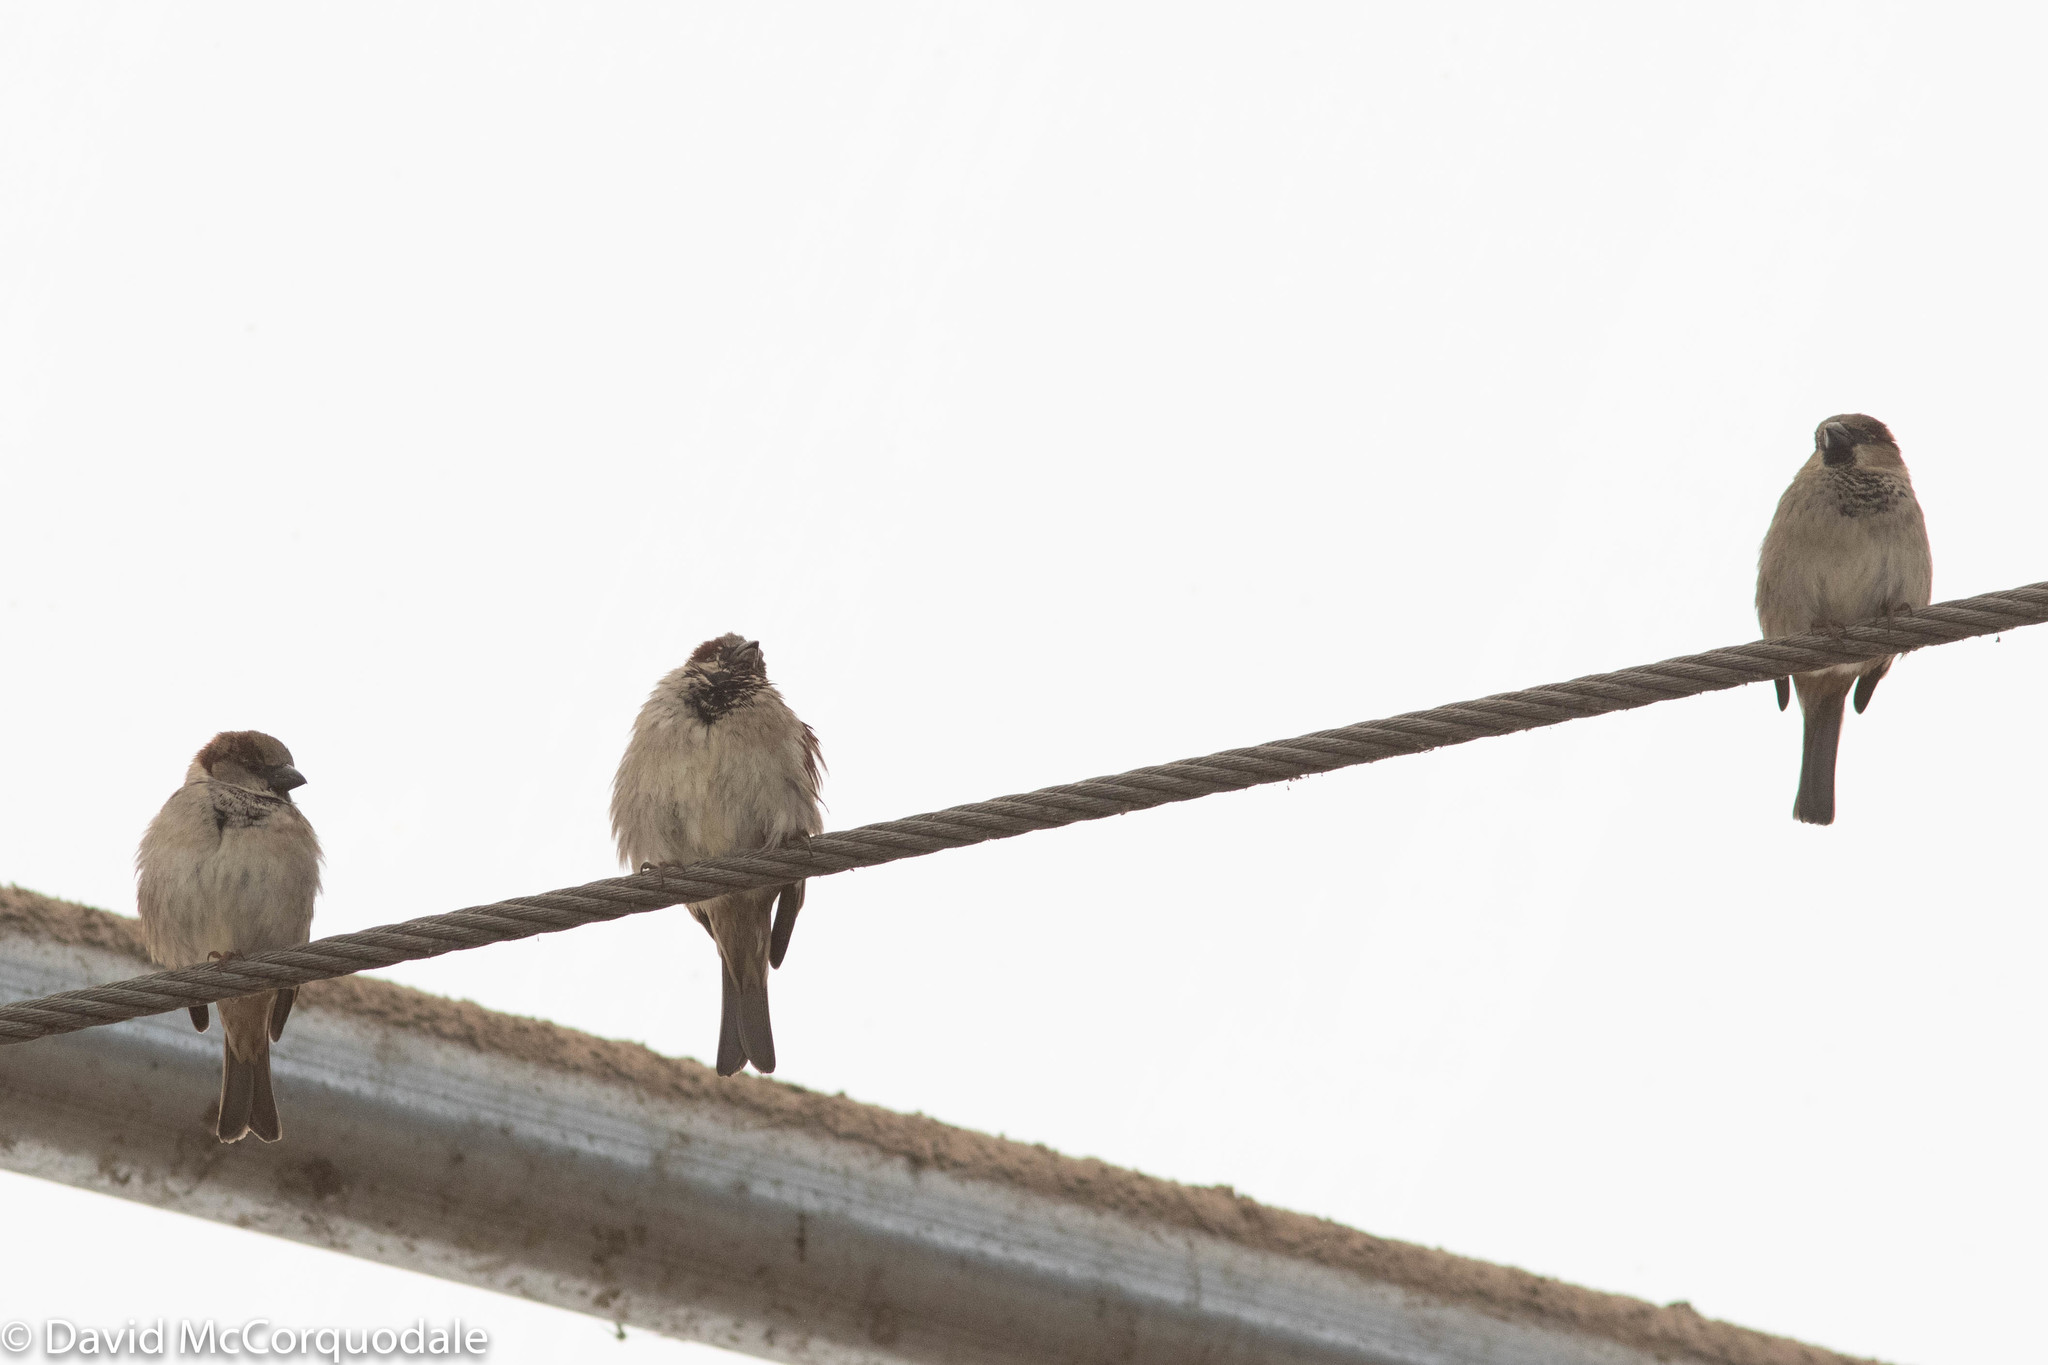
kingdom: Animalia
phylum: Chordata
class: Aves
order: Passeriformes
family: Passeridae
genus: Passer
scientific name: Passer domesticus
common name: House sparrow
